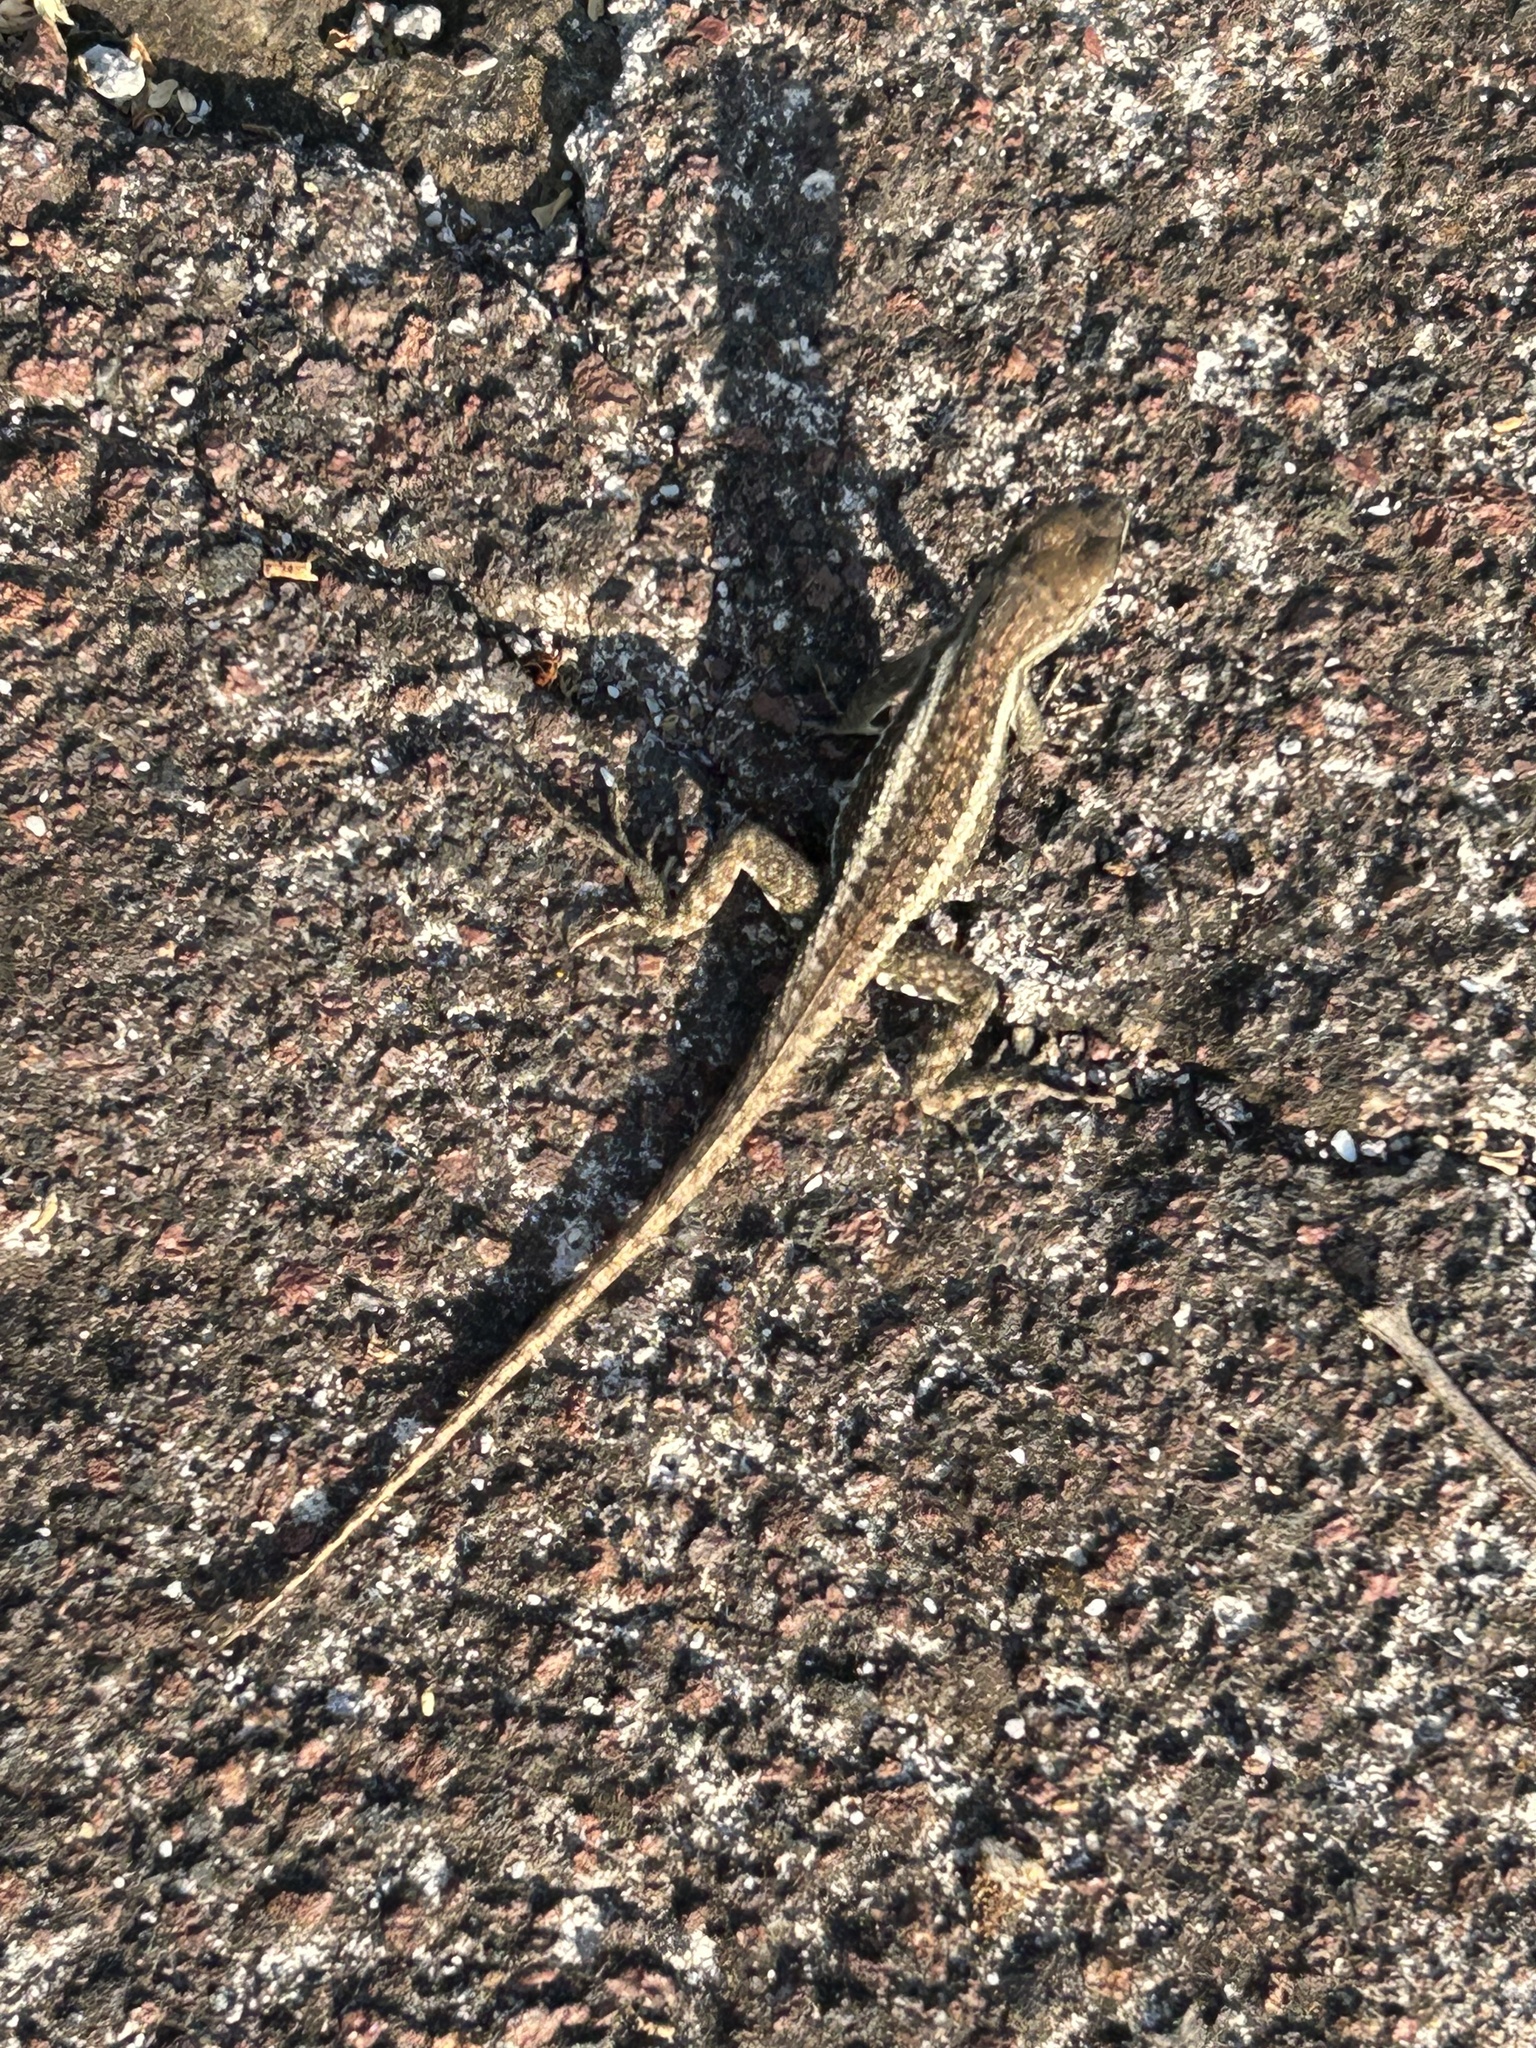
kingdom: Animalia
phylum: Chordata
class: Squamata
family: Tropiduridae
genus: Microlophus
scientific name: Microlophus bivittatus
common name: San cristobal lava lizard
